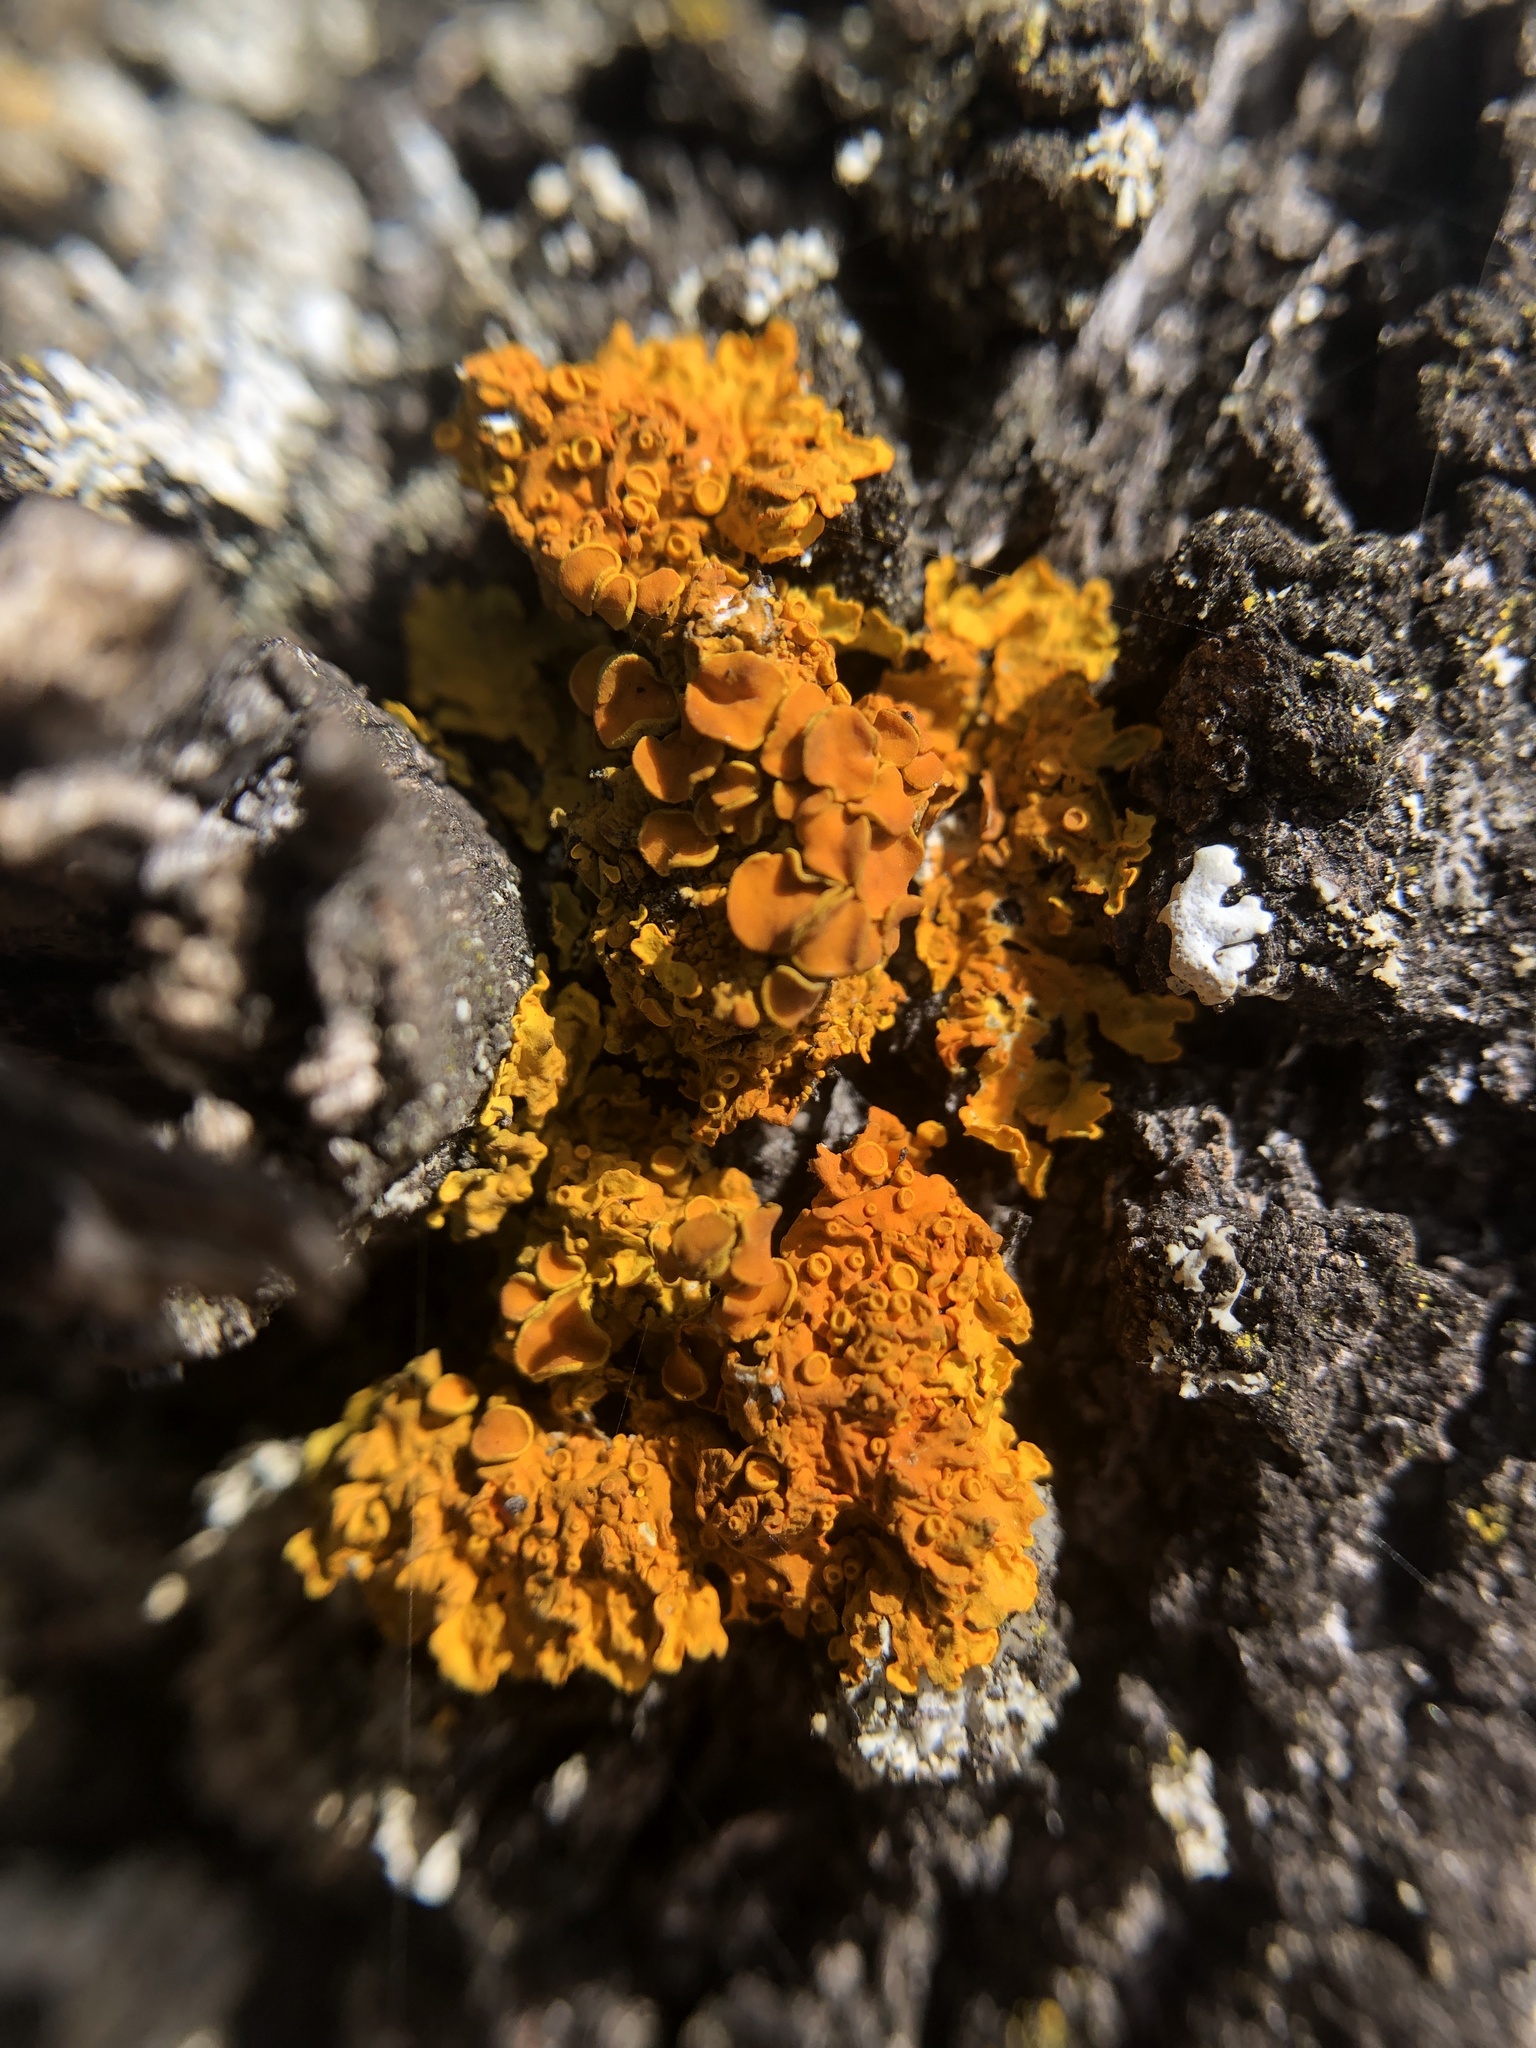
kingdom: Fungi
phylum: Ascomycota
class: Lecanoromycetes
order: Teloschistales
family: Teloschistaceae
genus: Xanthoria
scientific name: Xanthoria parietina
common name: Common orange lichen
